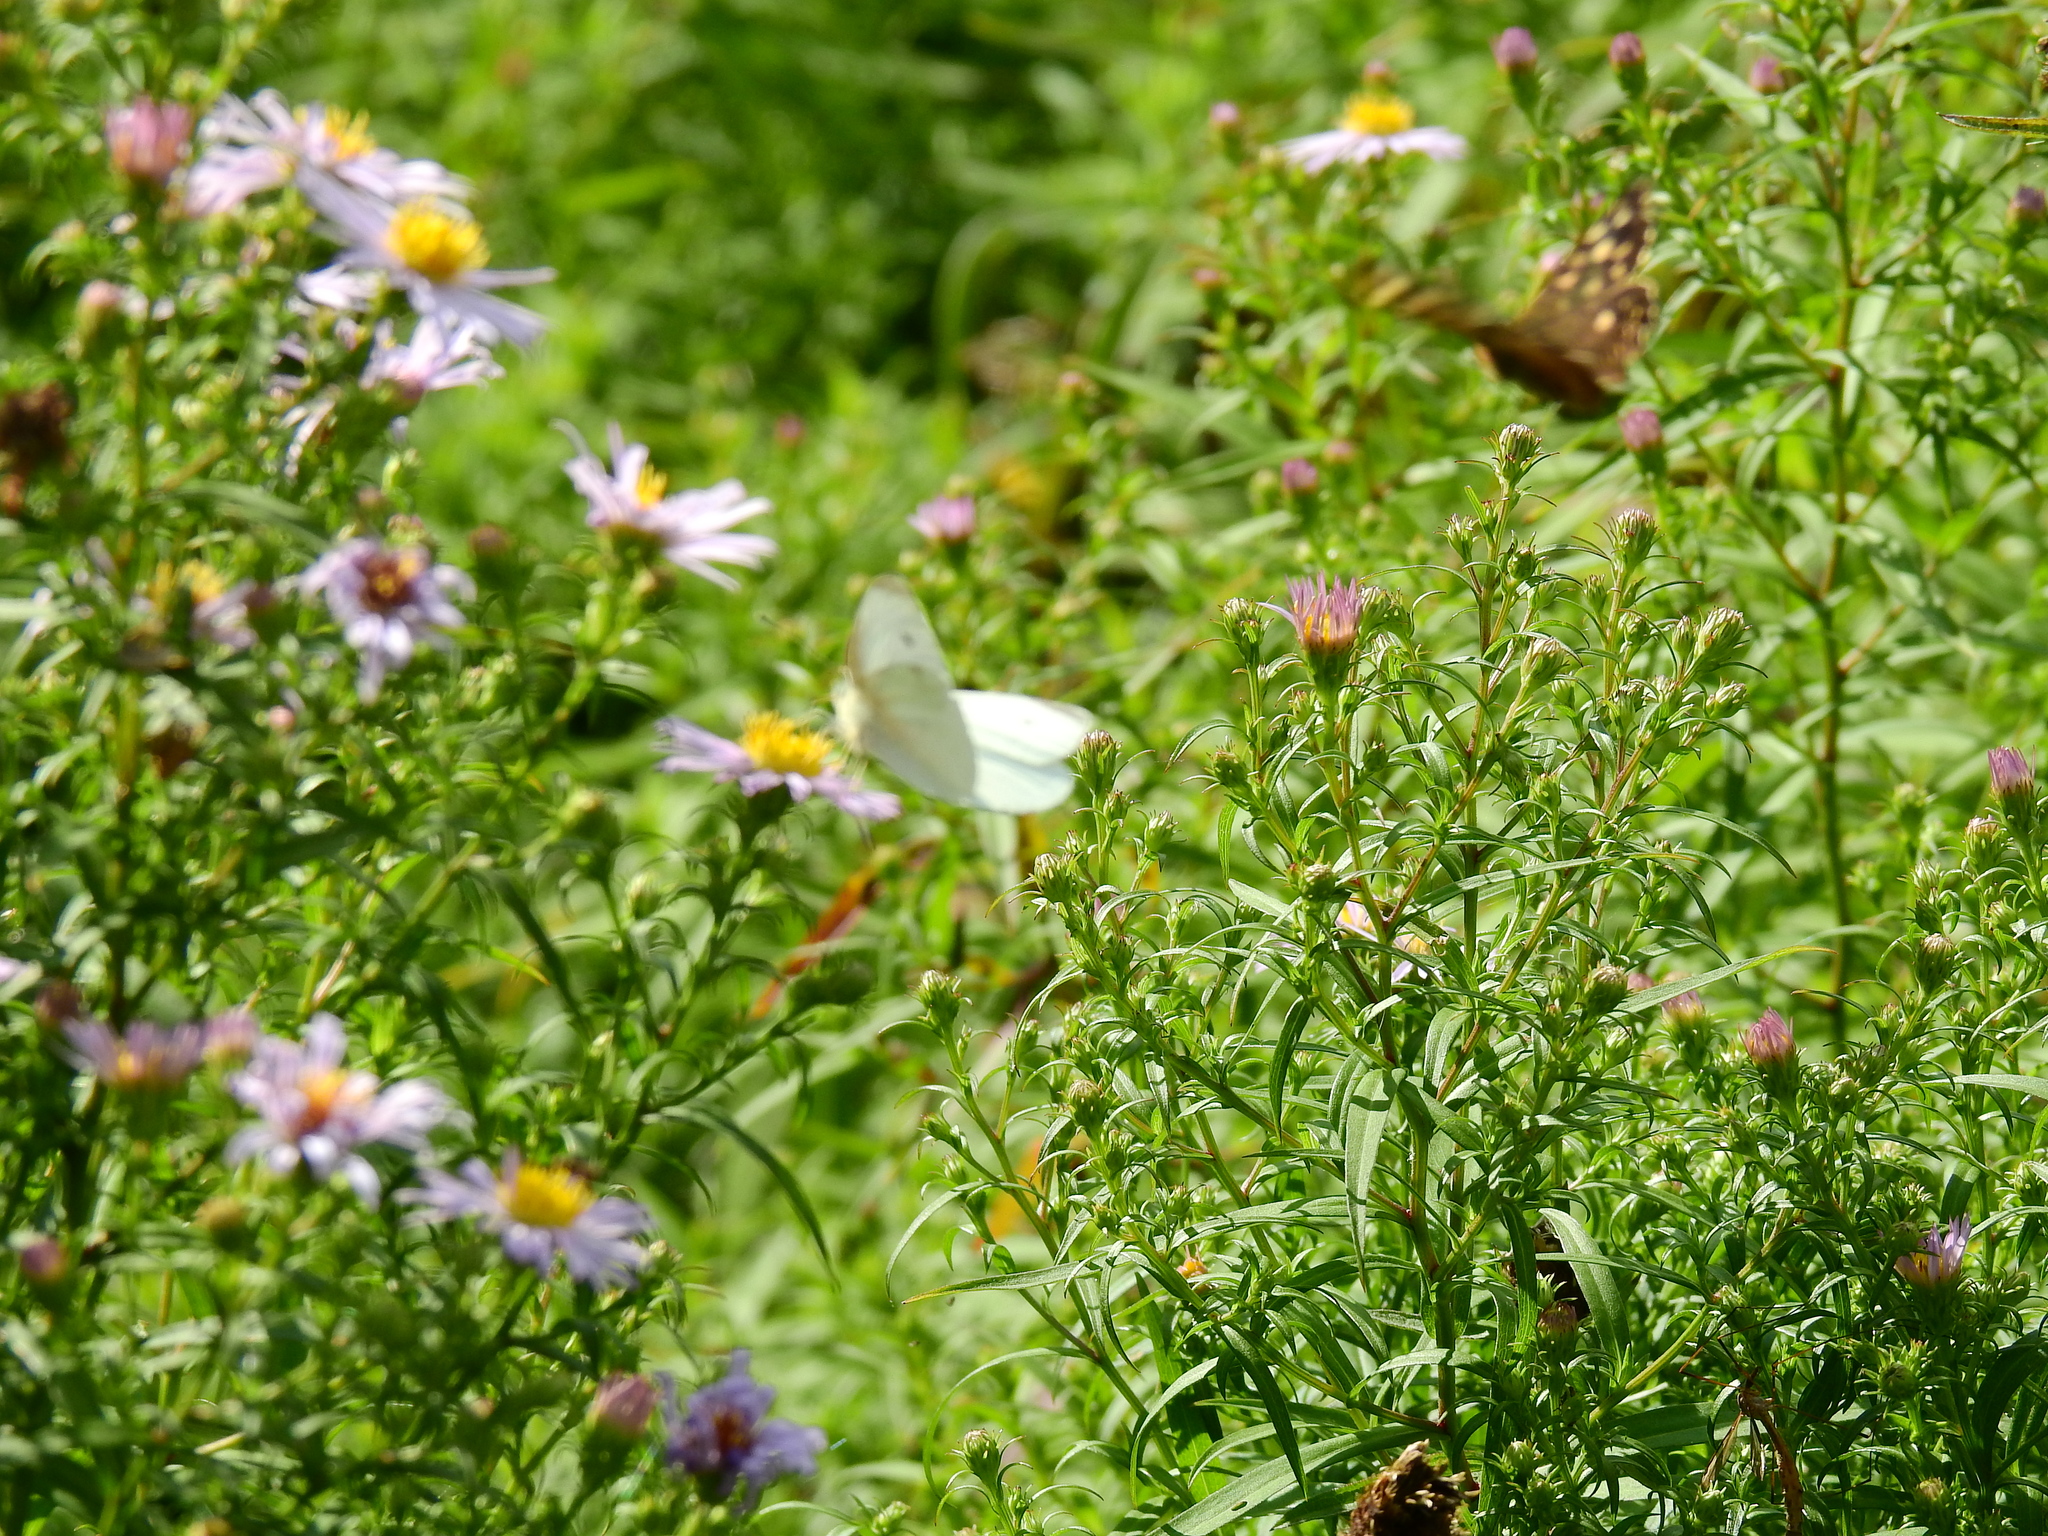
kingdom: Animalia
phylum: Arthropoda
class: Insecta
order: Lepidoptera
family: Pieridae
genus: Pieris
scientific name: Pieris rapae
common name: Small white
